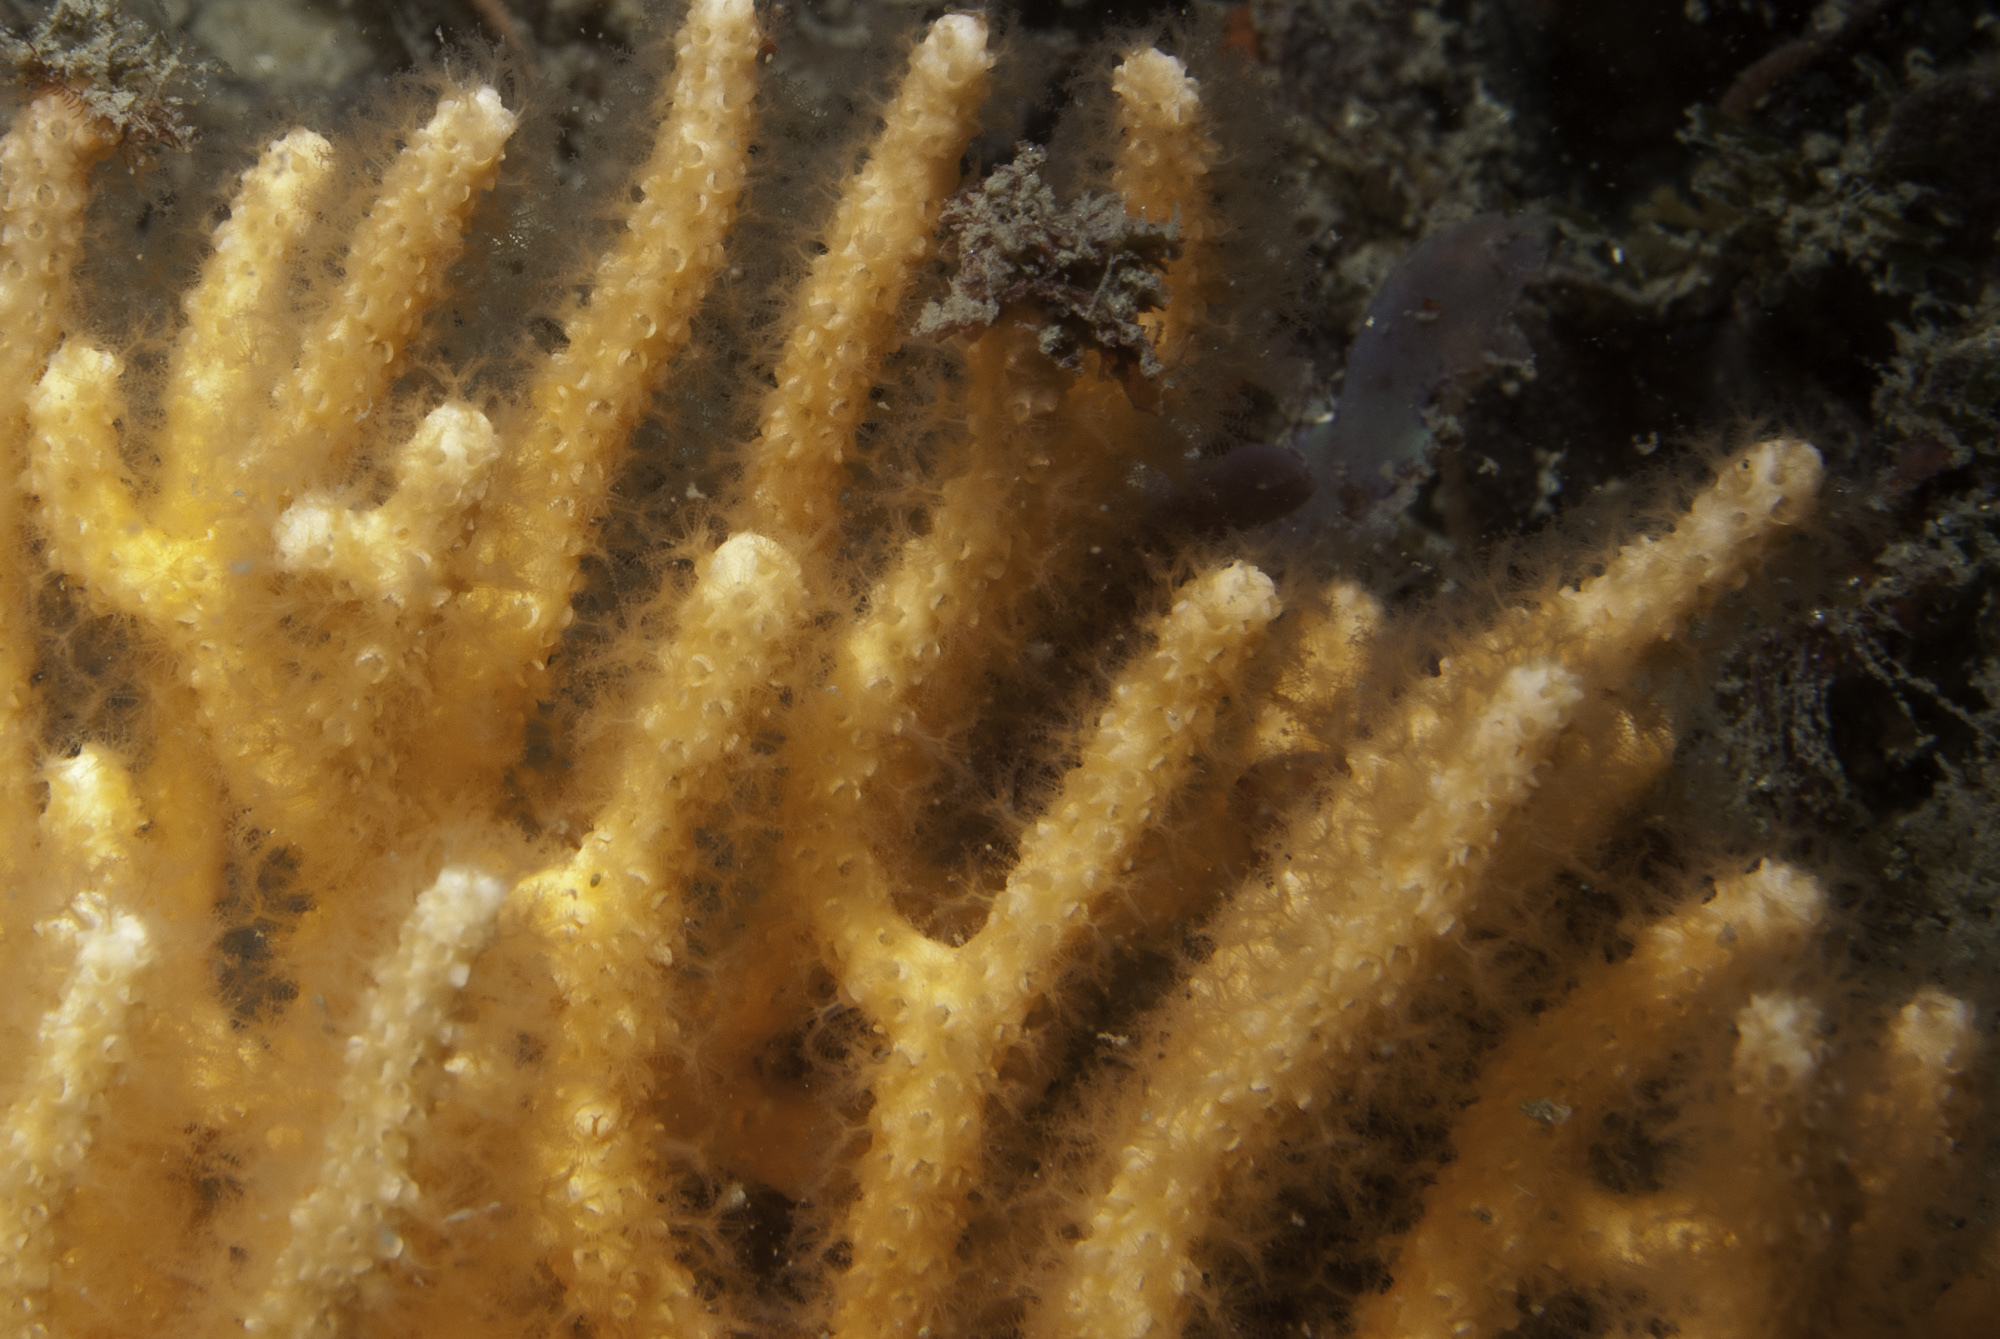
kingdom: Animalia
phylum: Cnidaria
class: Anthozoa
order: Malacalcyonacea
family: Eunicellidae
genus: Eunicella
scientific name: Eunicella microthela
